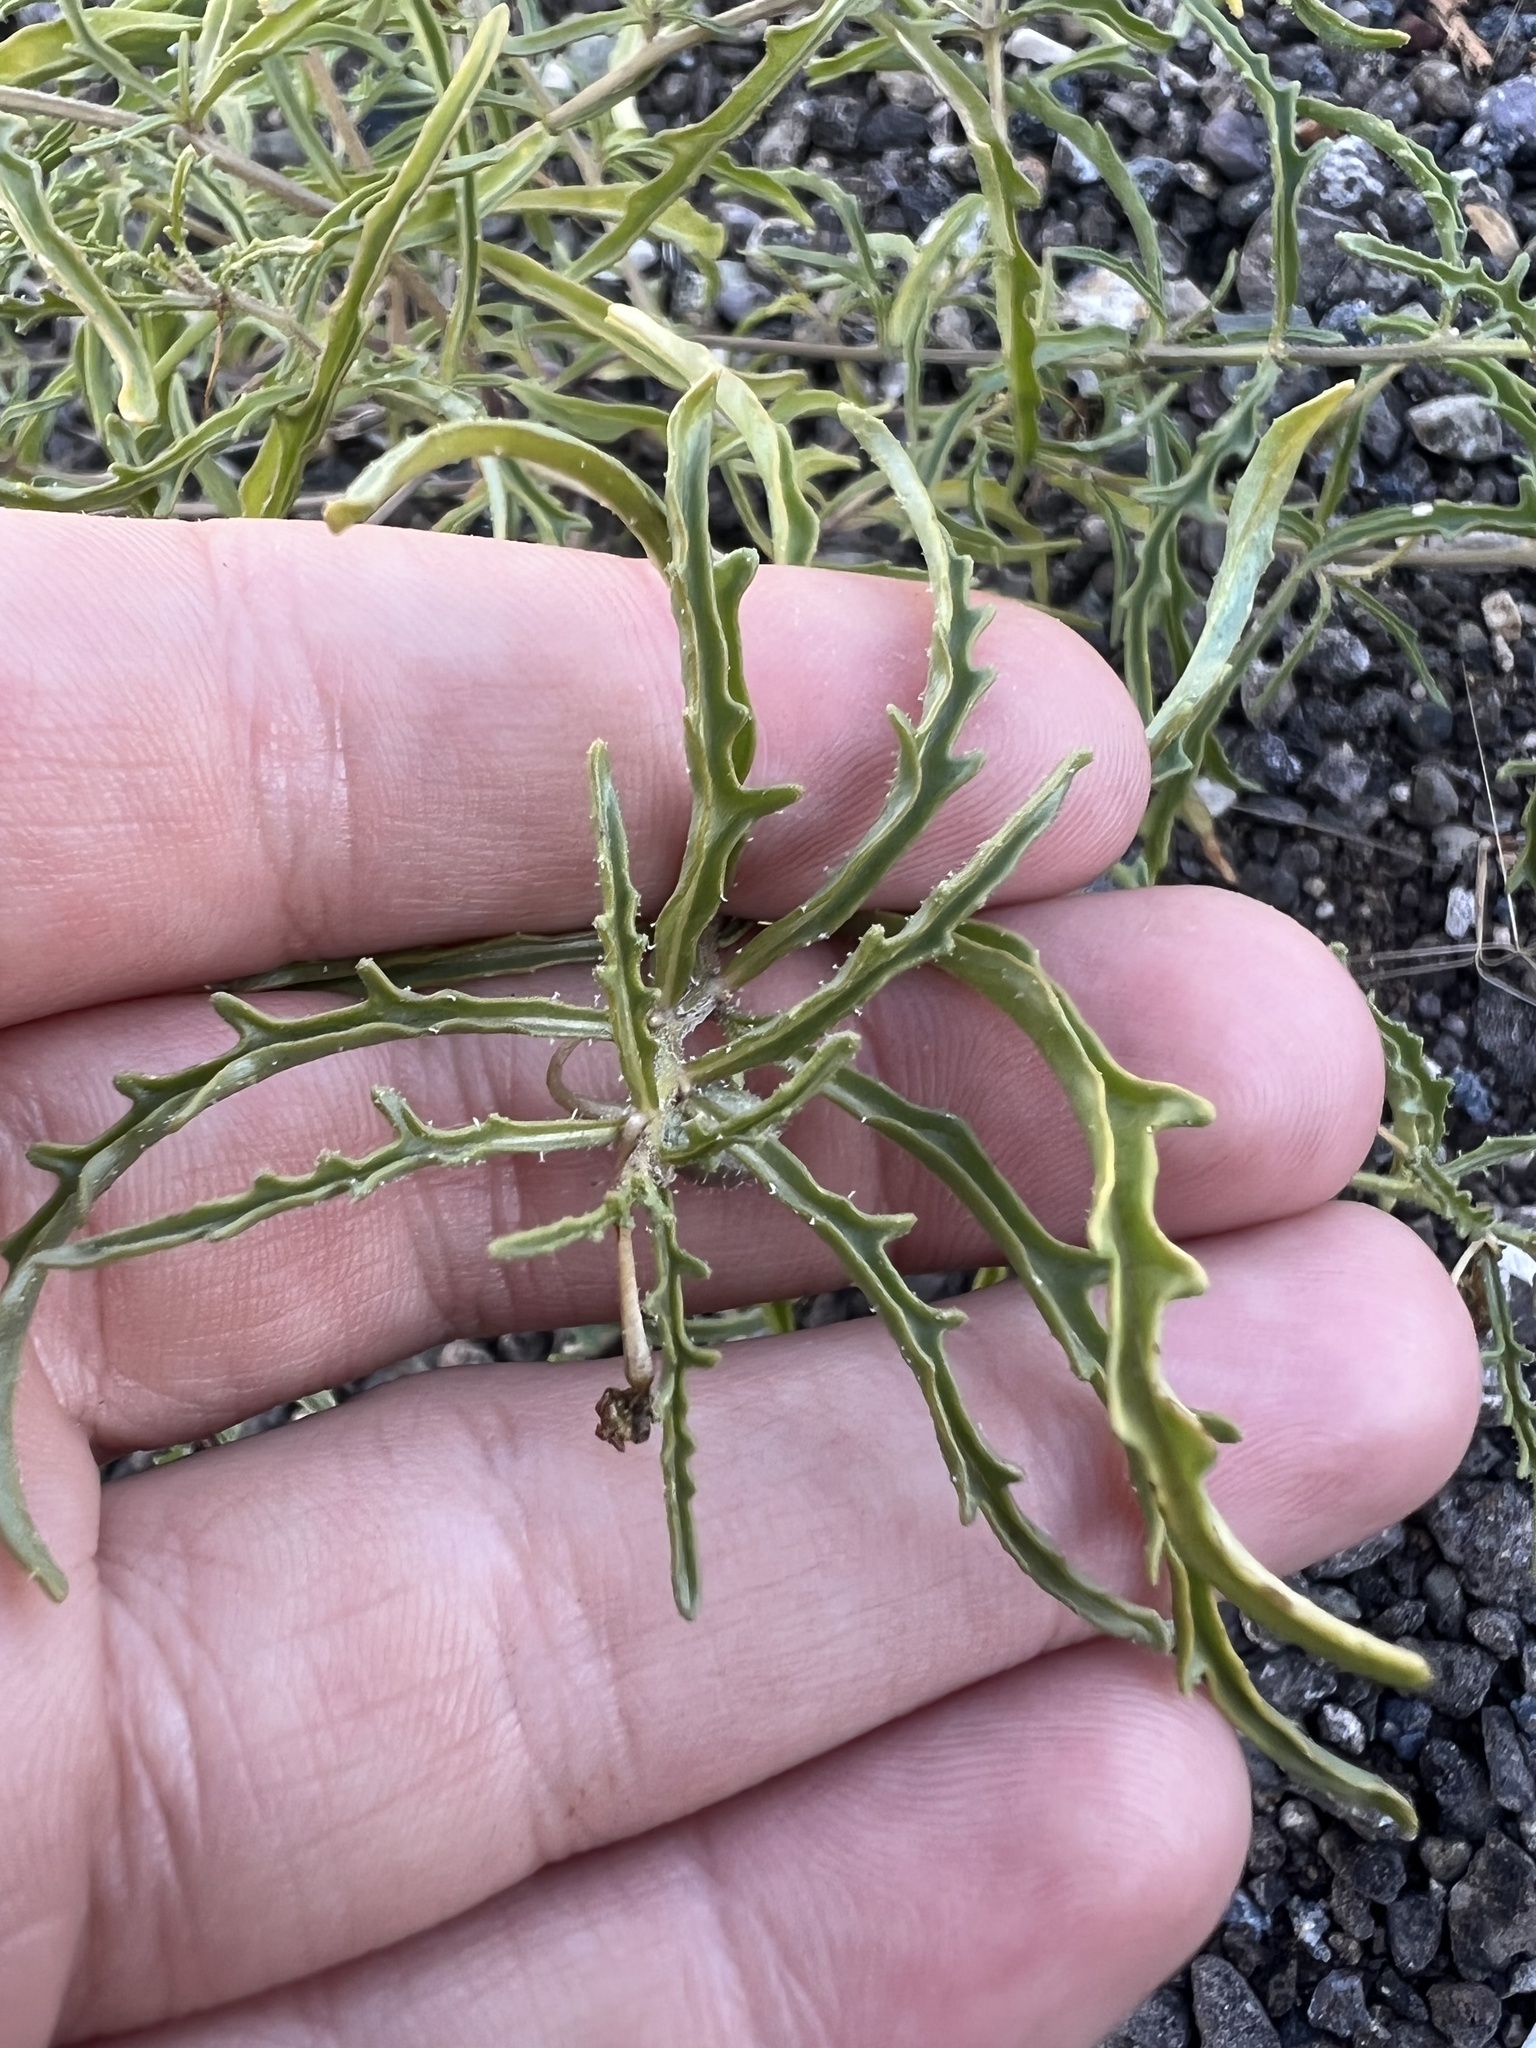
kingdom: Plantae
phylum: Tracheophyta
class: Magnoliopsida
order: Solanales
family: Solanaceae
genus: Chamaesaracha
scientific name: Chamaesaracha coronopus
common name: Smooth chamaesaracha
